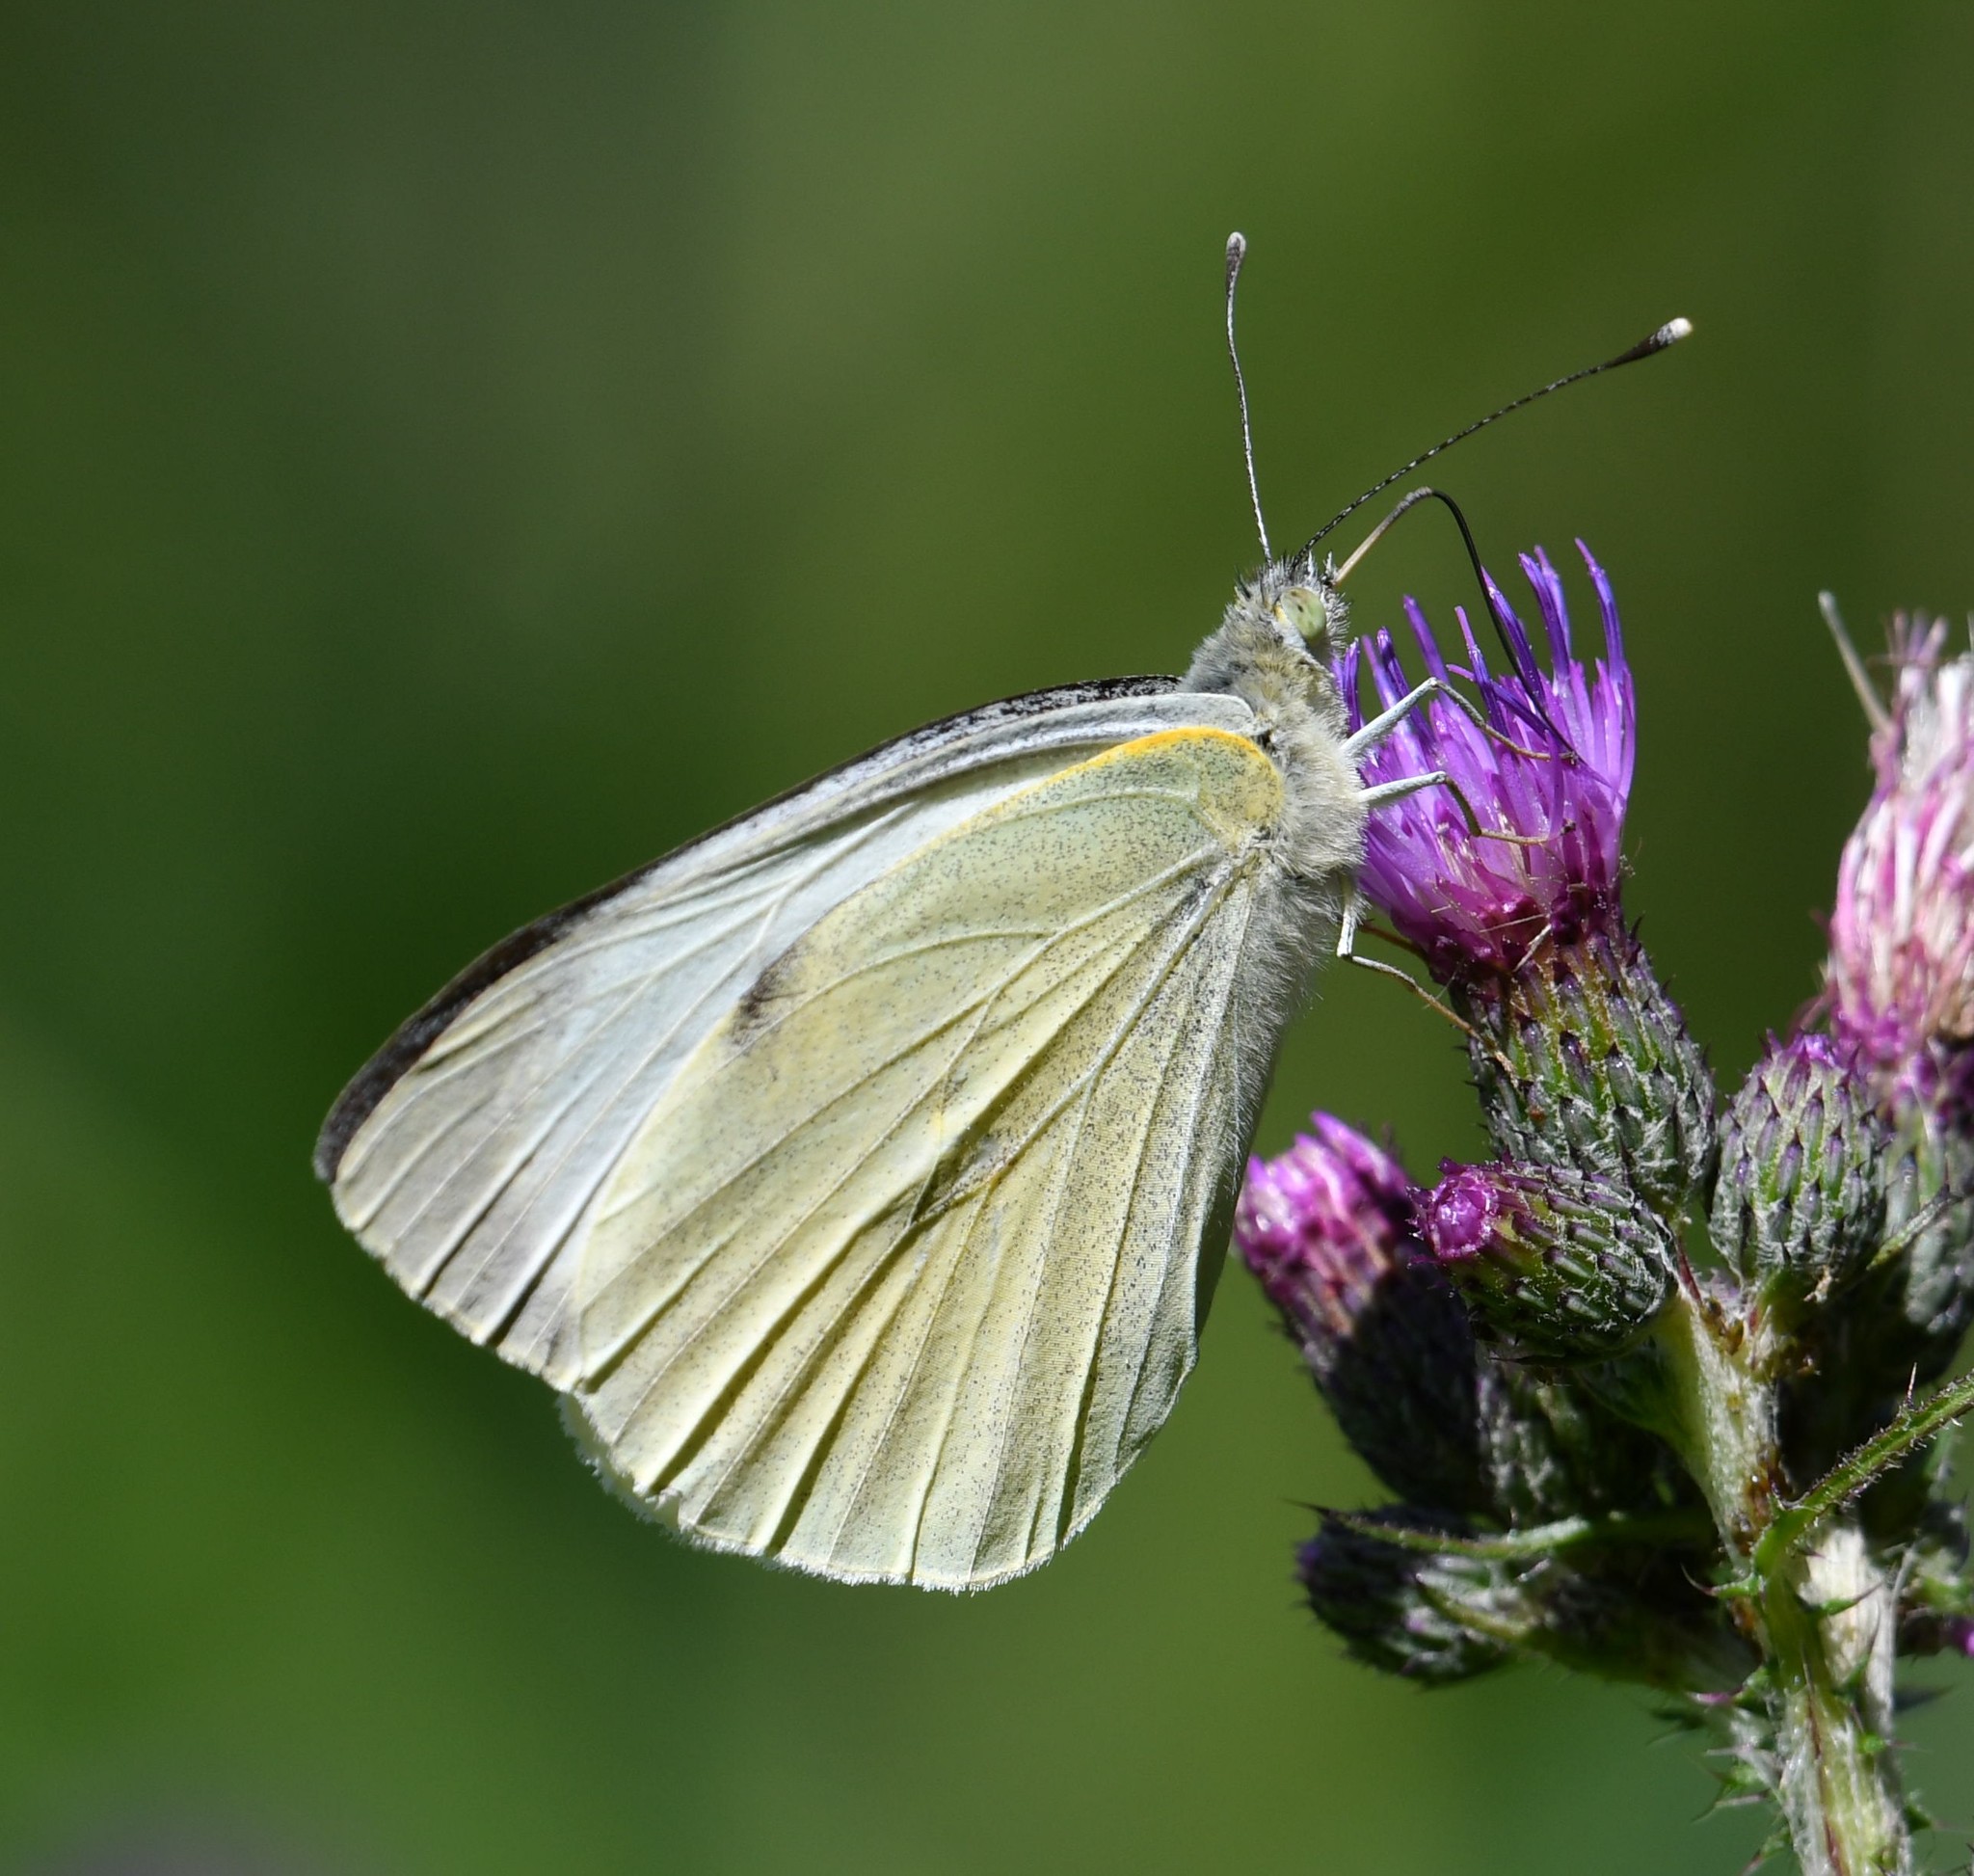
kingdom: Animalia
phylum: Arthropoda
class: Insecta
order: Lepidoptera
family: Pieridae
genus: Pieris
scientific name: Pieris brassicae
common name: Large white
